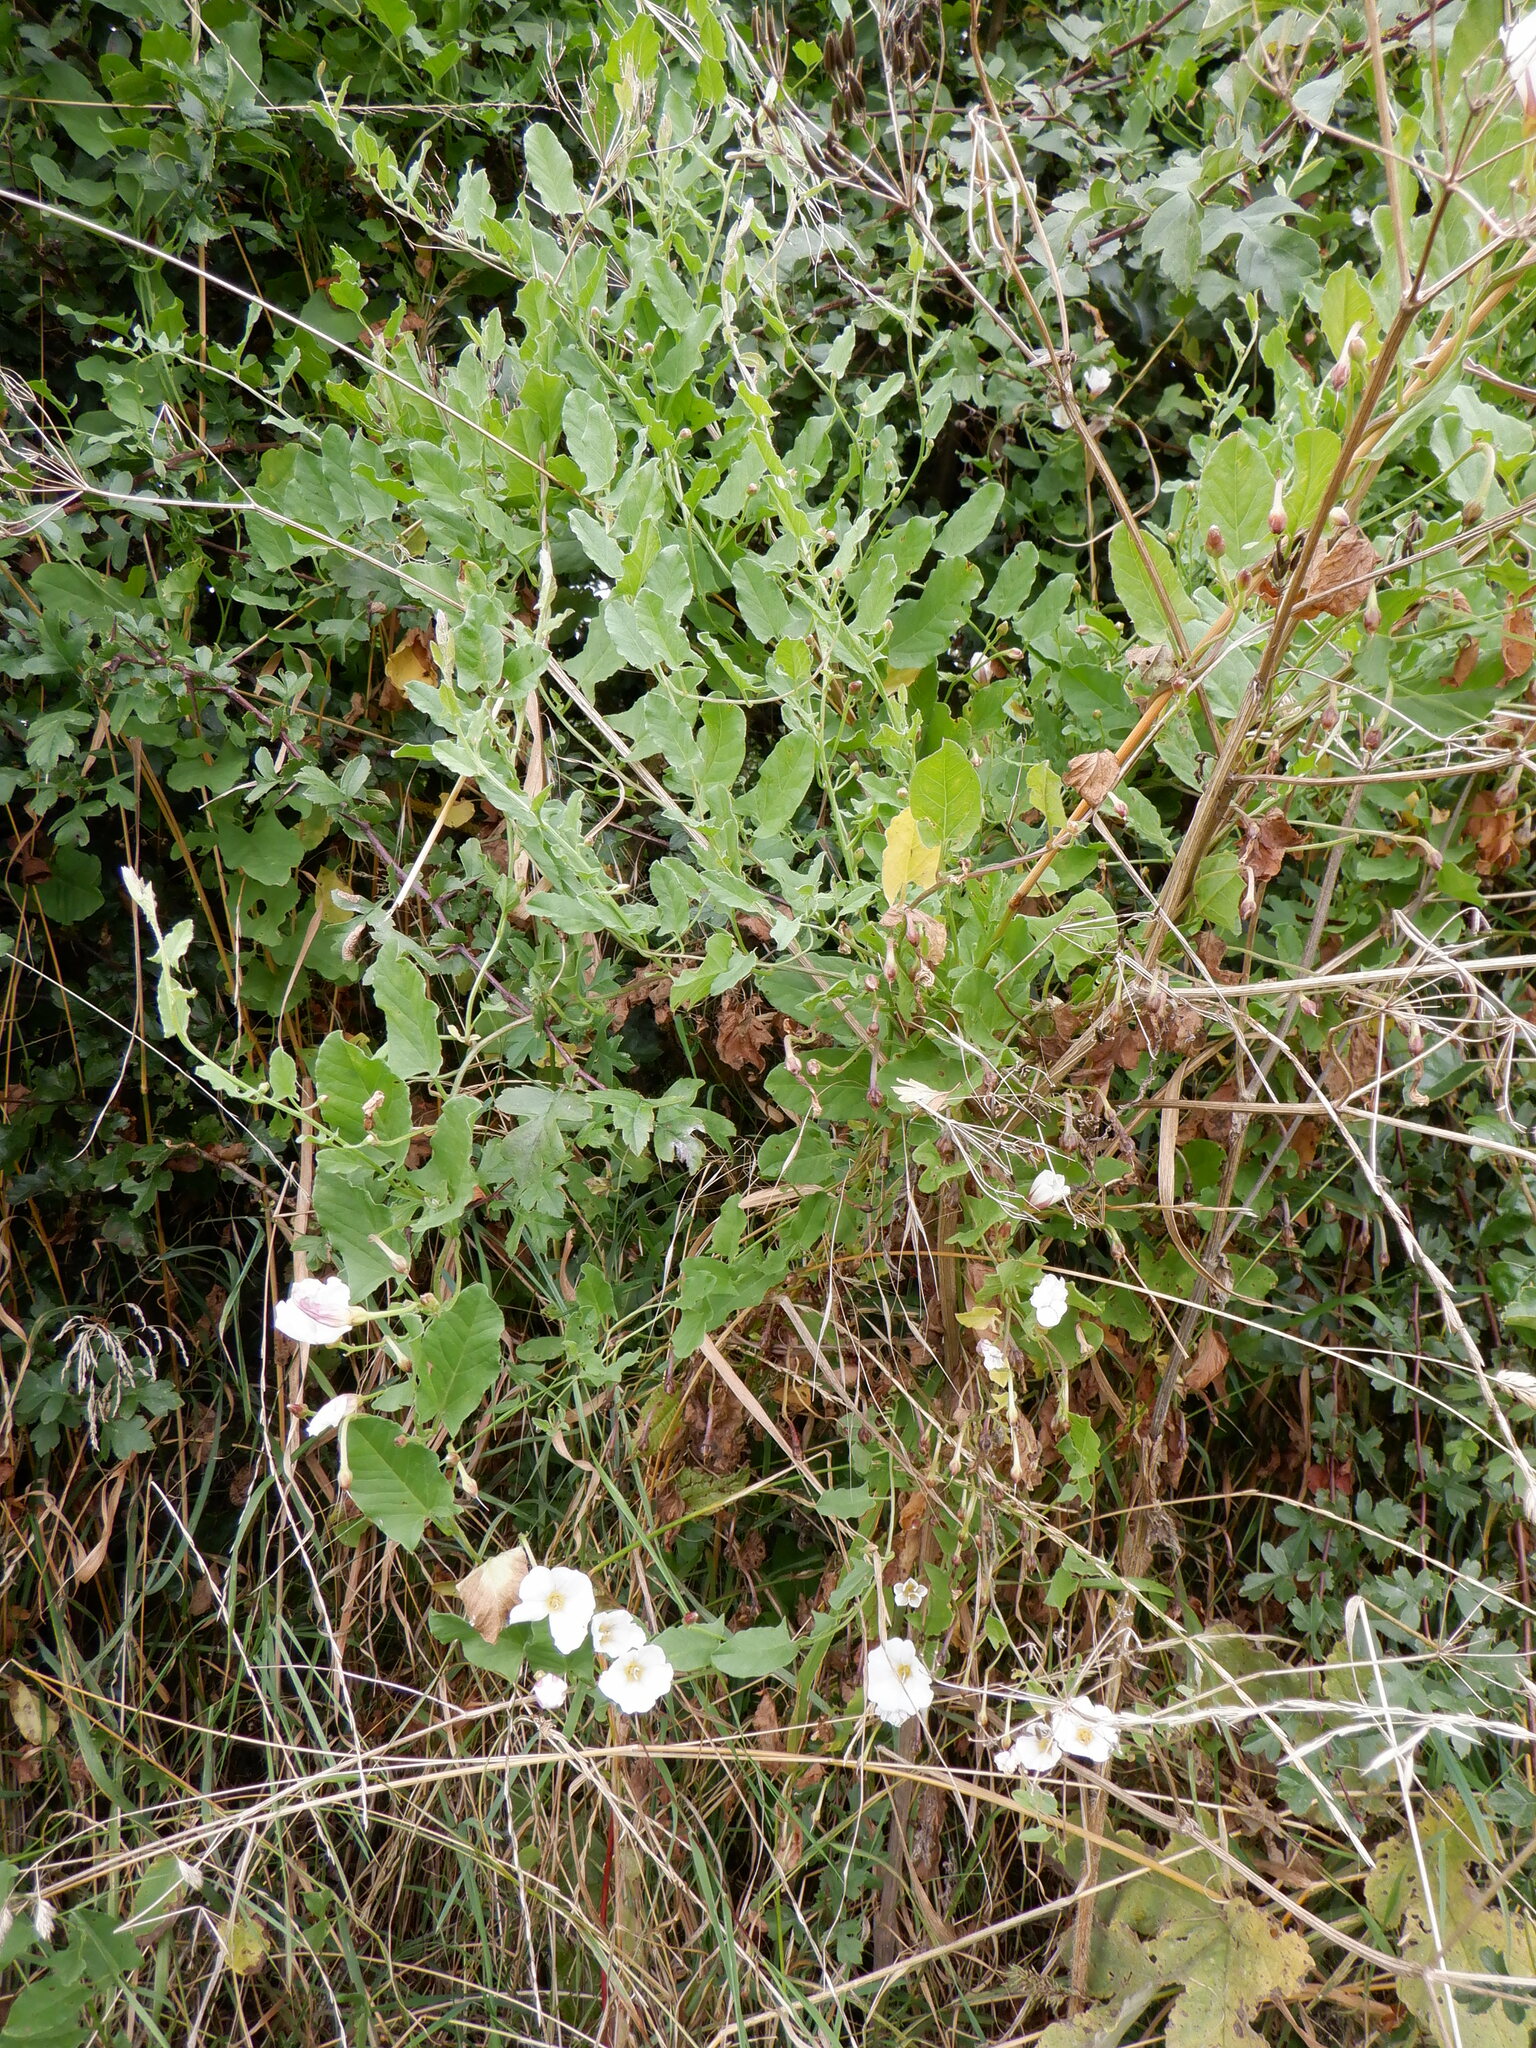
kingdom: Plantae
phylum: Tracheophyta
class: Magnoliopsida
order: Solanales
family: Convolvulaceae
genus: Convolvulus
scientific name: Convolvulus arvensis
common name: Field bindweed
